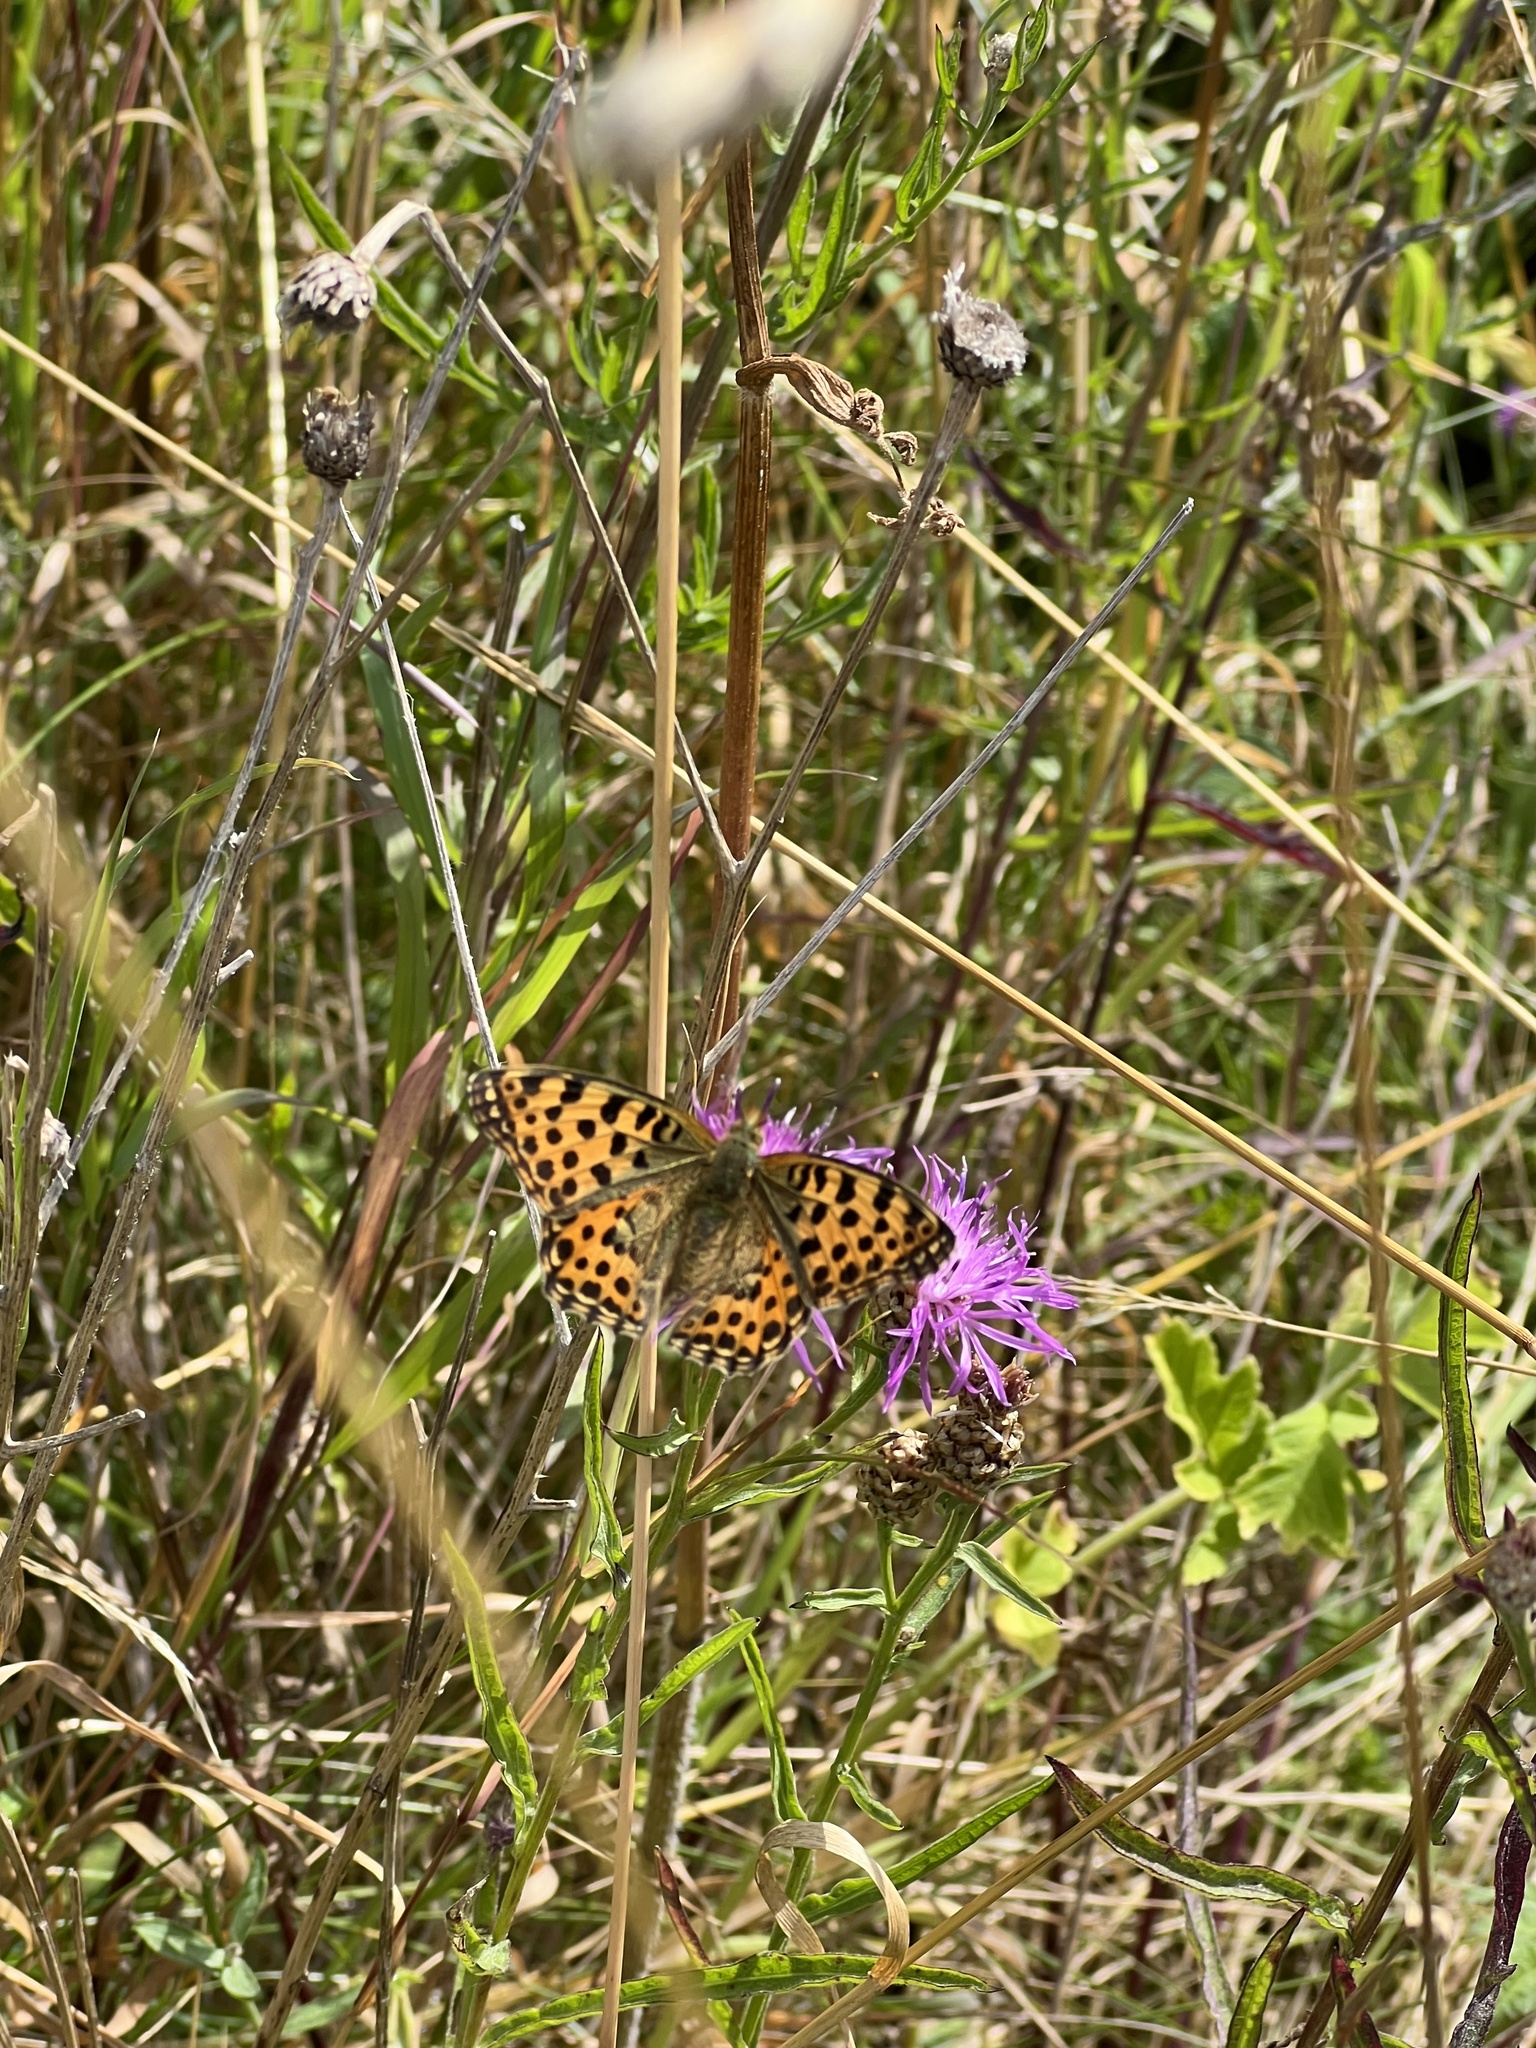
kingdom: Animalia
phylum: Arthropoda
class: Insecta
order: Lepidoptera
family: Nymphalidae
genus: Issoria
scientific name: Issoria lathonia
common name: Queen of spain fritillary
